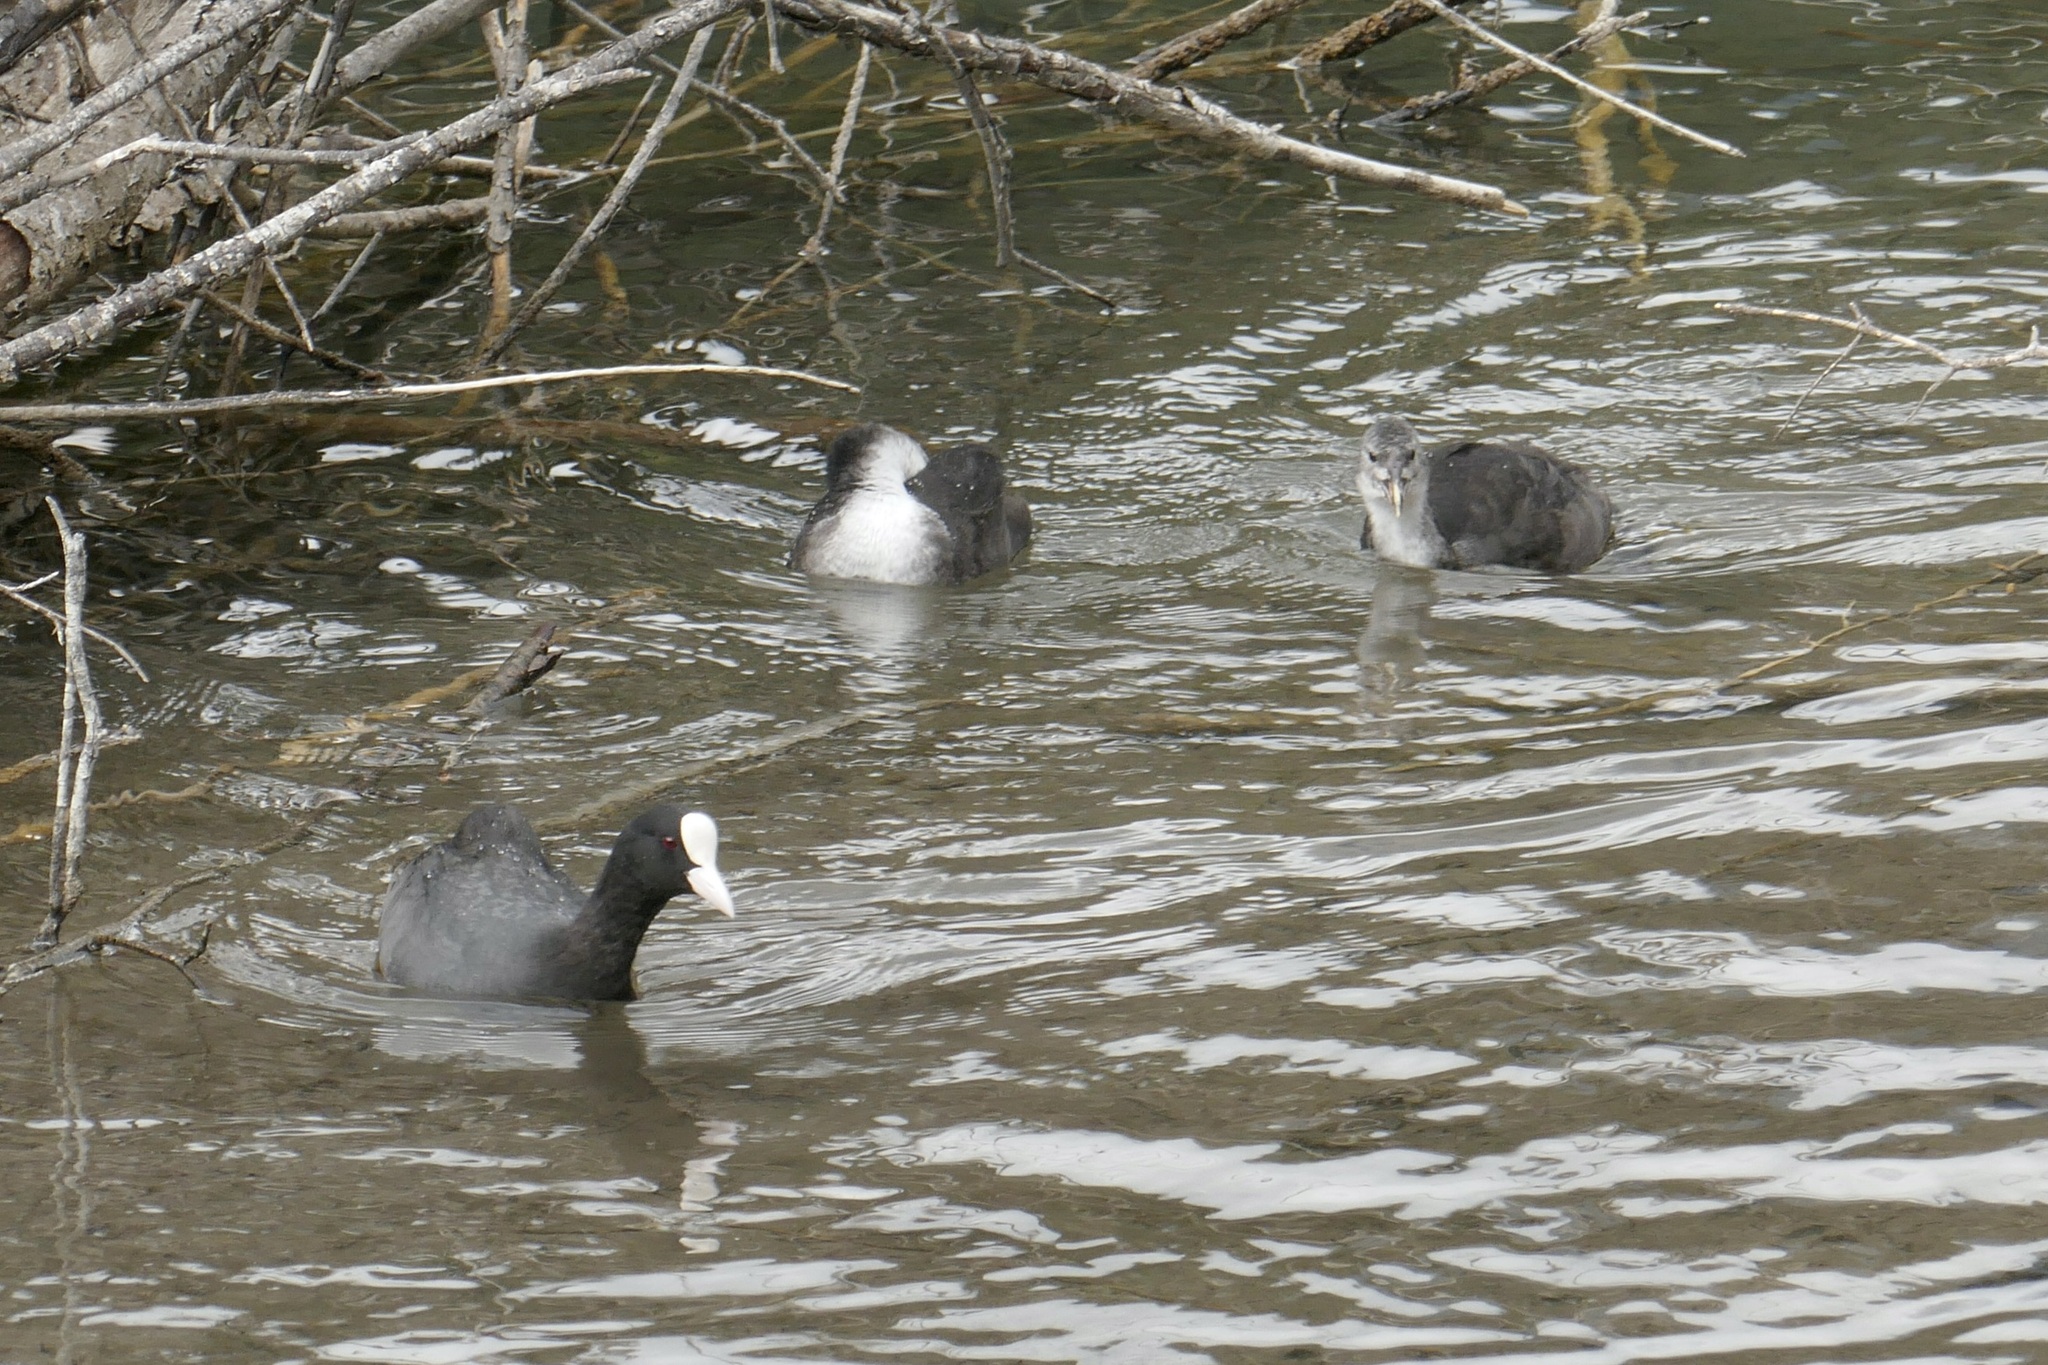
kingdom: Animalia
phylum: Chordata
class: Aves
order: Gruiformes
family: Rallidae
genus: Fulica
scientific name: Fulica atra
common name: Eurasian coot
